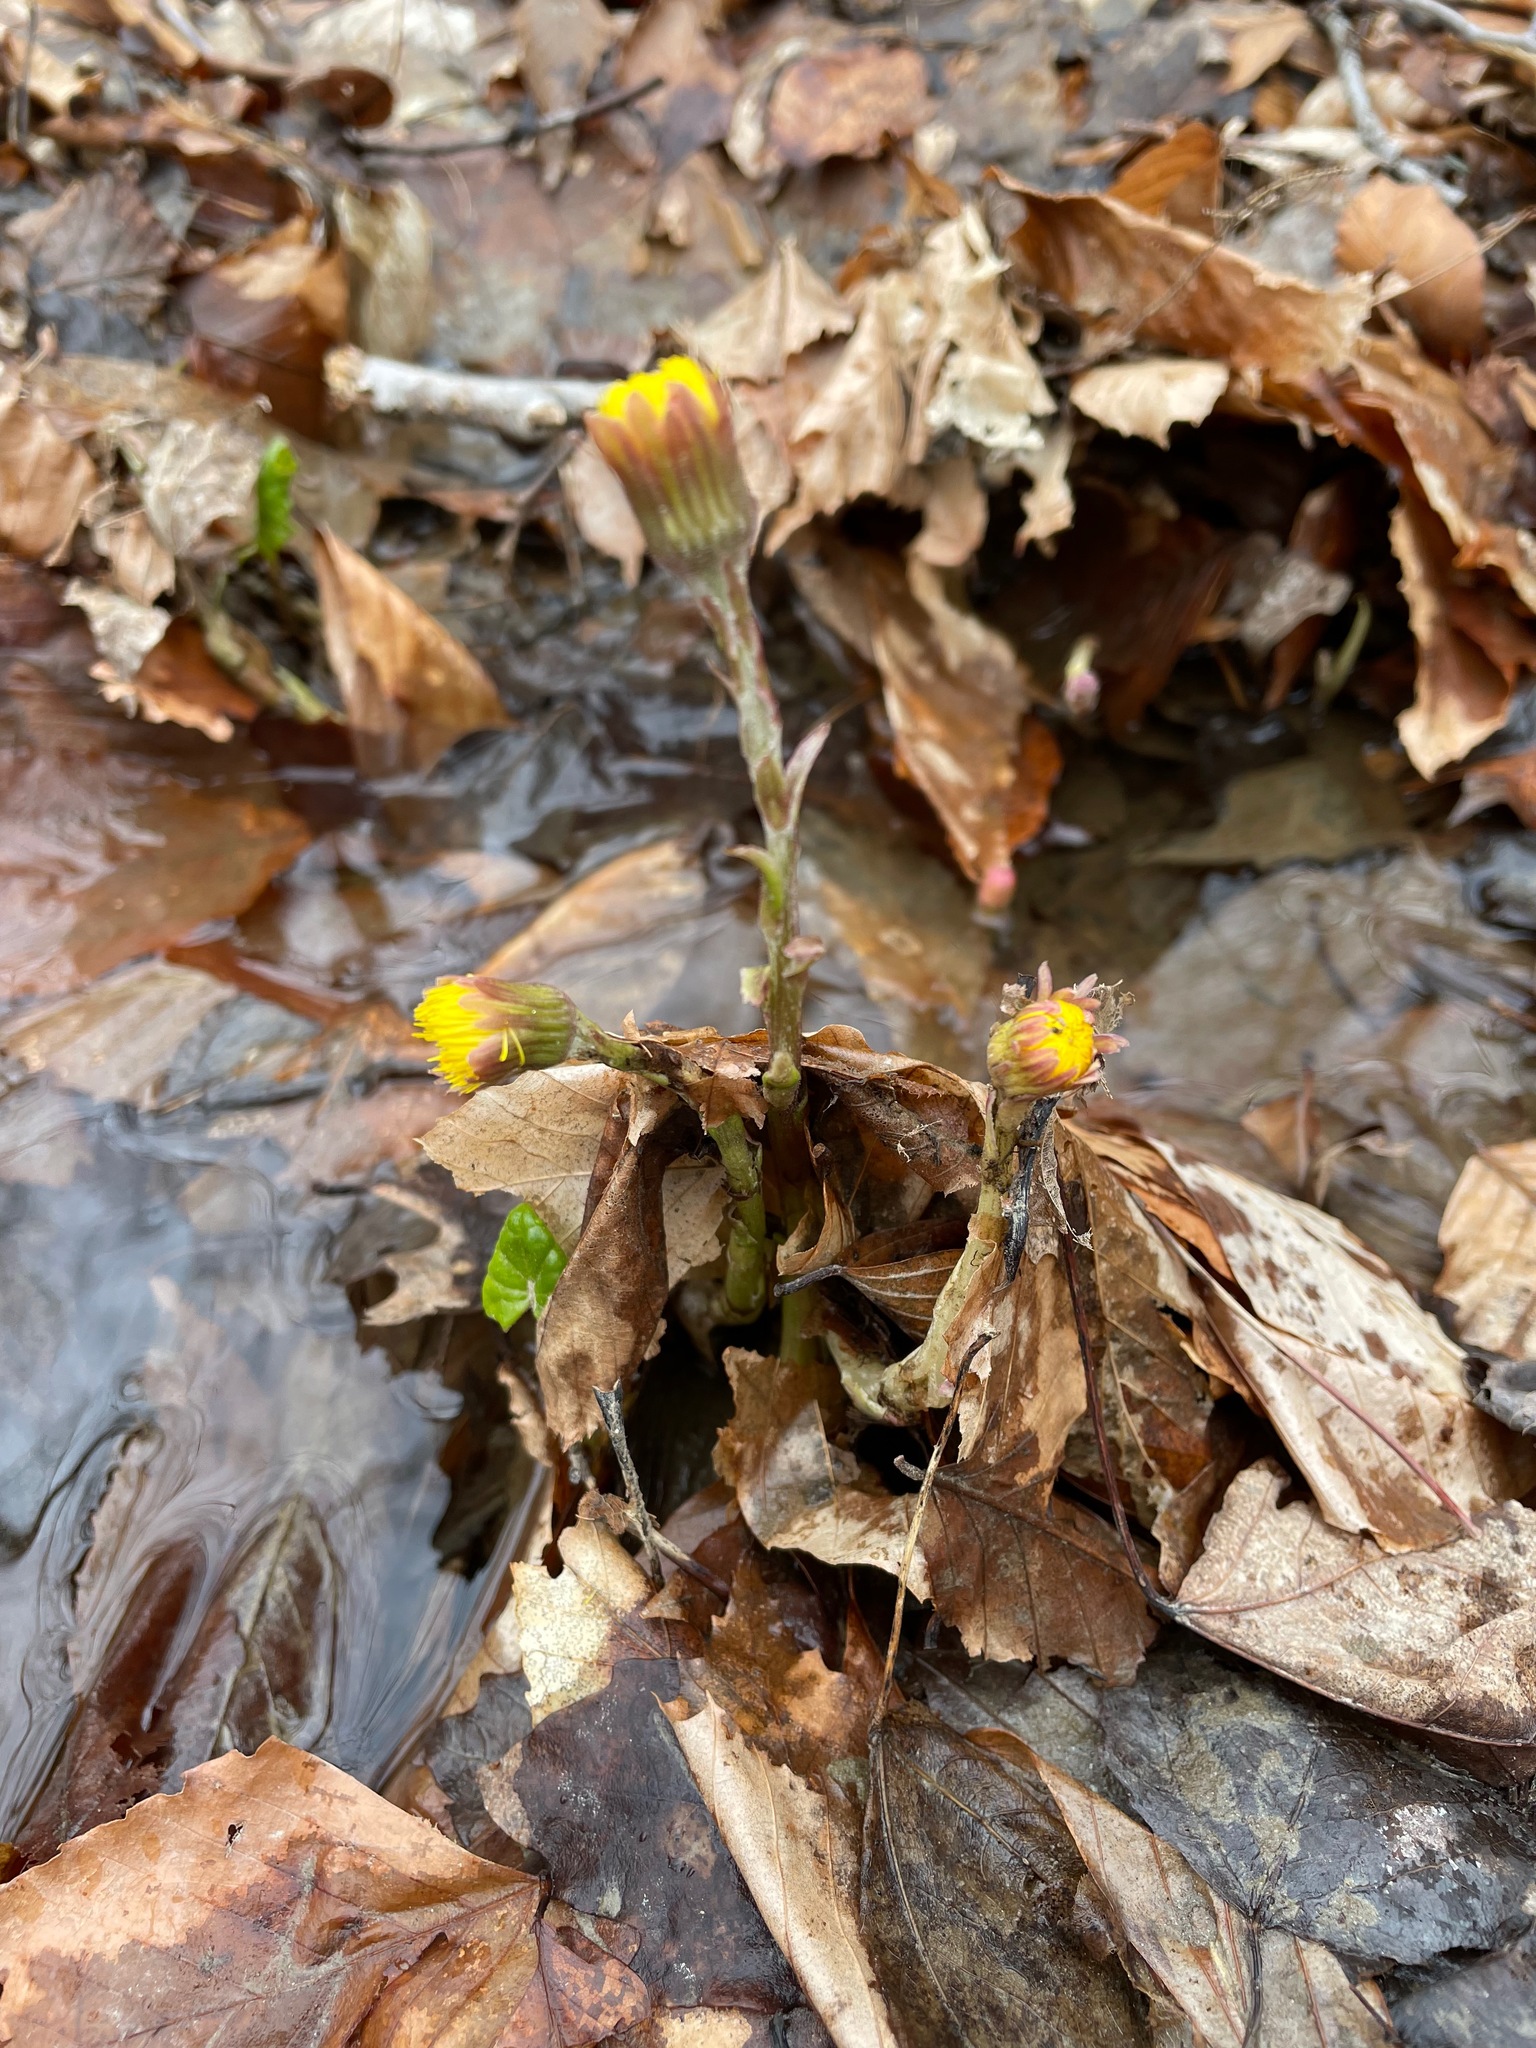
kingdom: Plantae
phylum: Tracheophyta
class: Magnoliopsida
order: Asterales
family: Asteraceae
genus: Tussilago
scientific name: Tussilago farfara
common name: Coltsfoot
